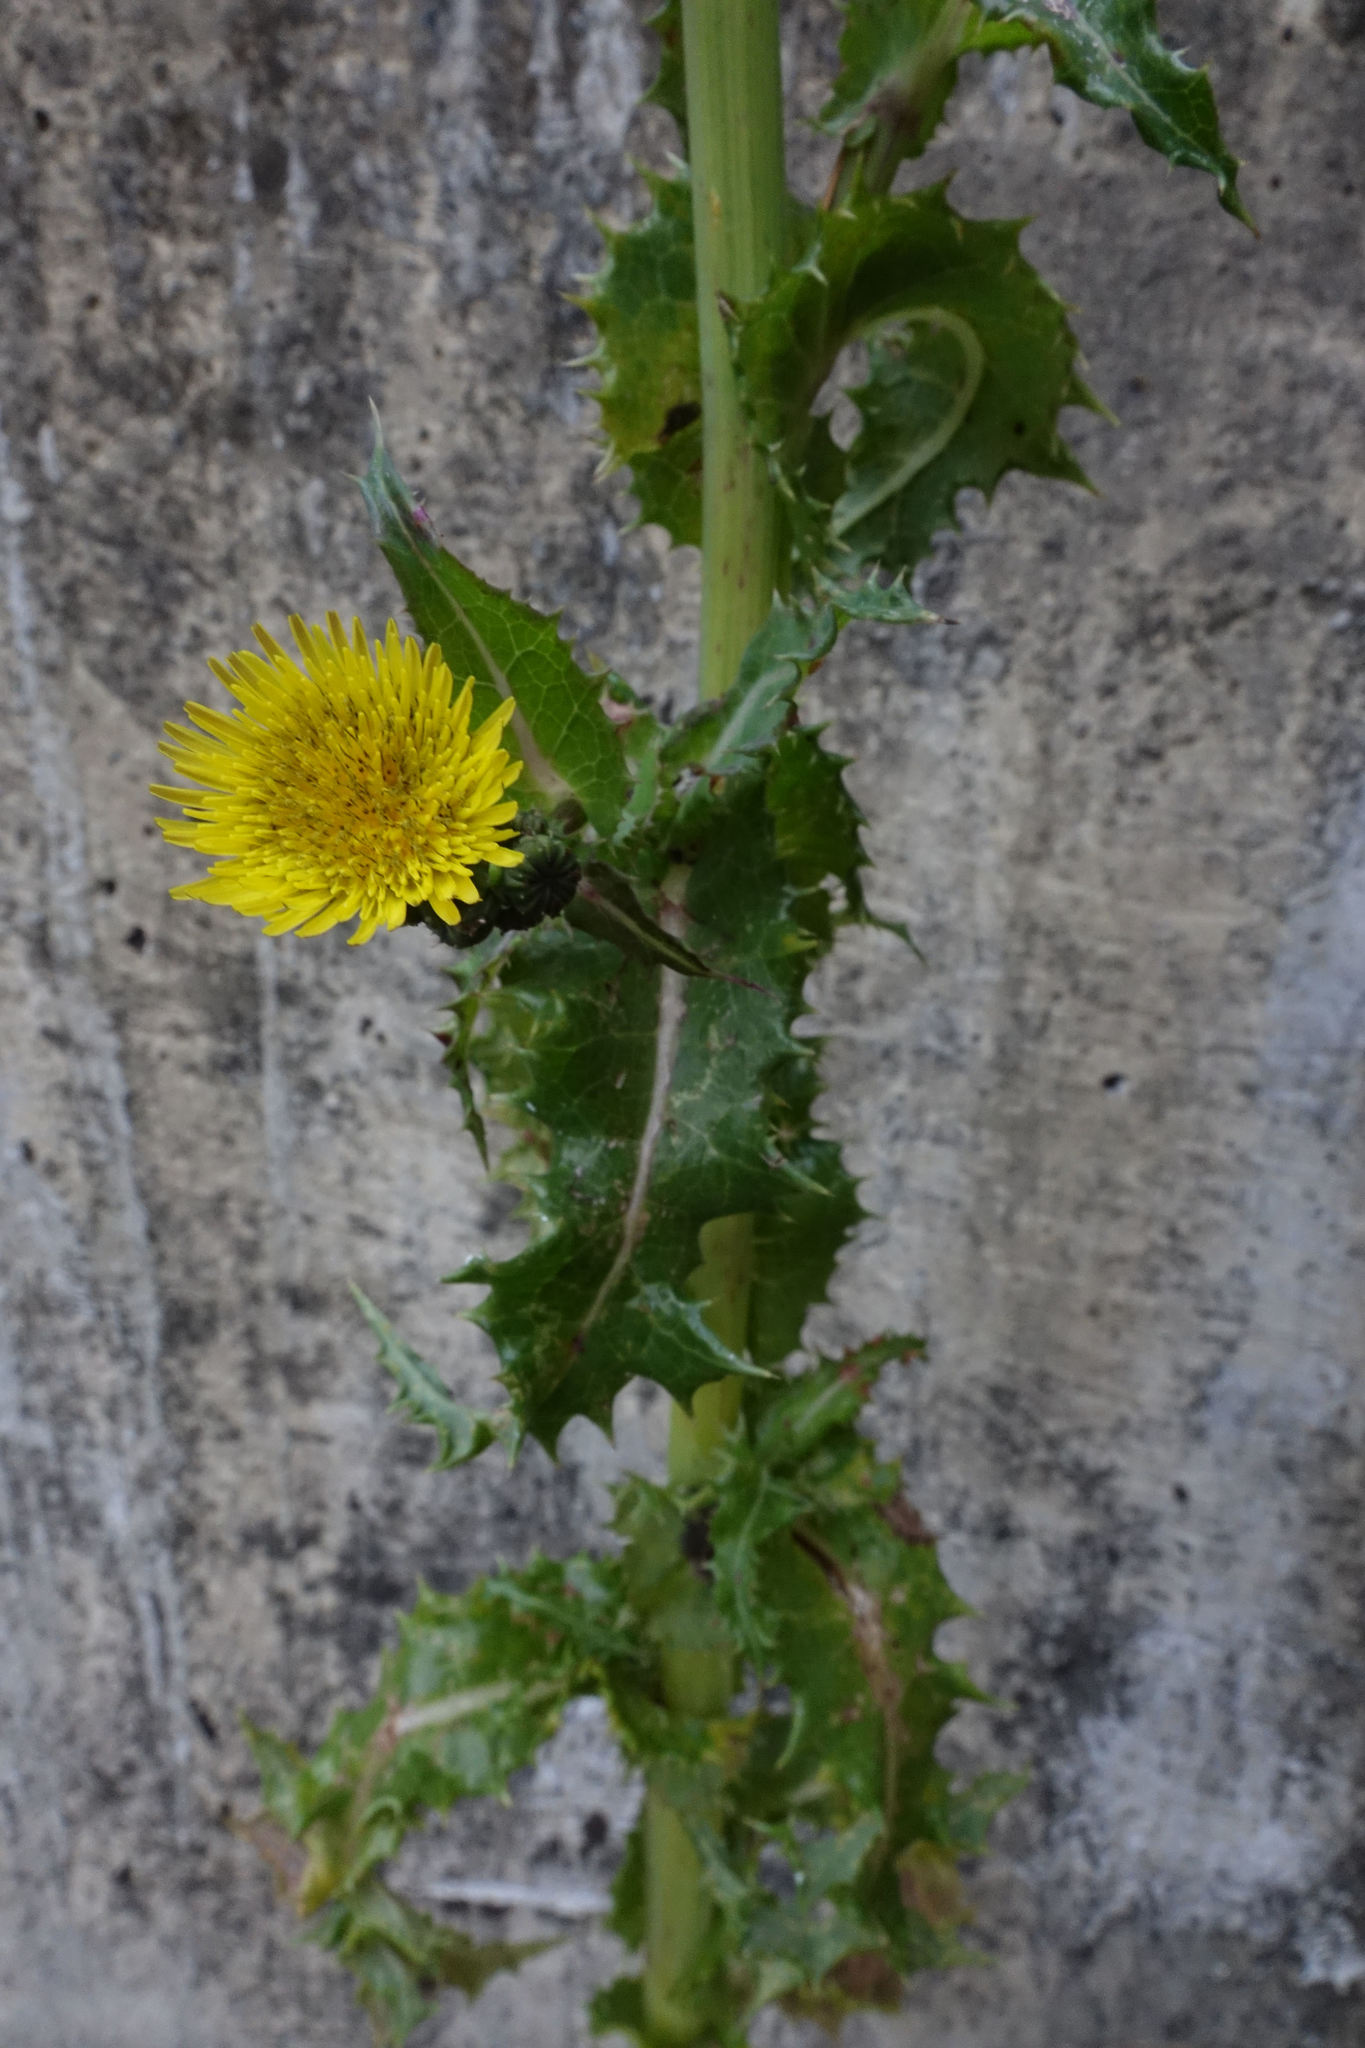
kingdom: Plantae
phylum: Tracheophyta
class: Magnoliopsida
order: Asterales
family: Asteraceae
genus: Sonchus
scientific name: Sonchus asper
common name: Prickly sow-thistle
